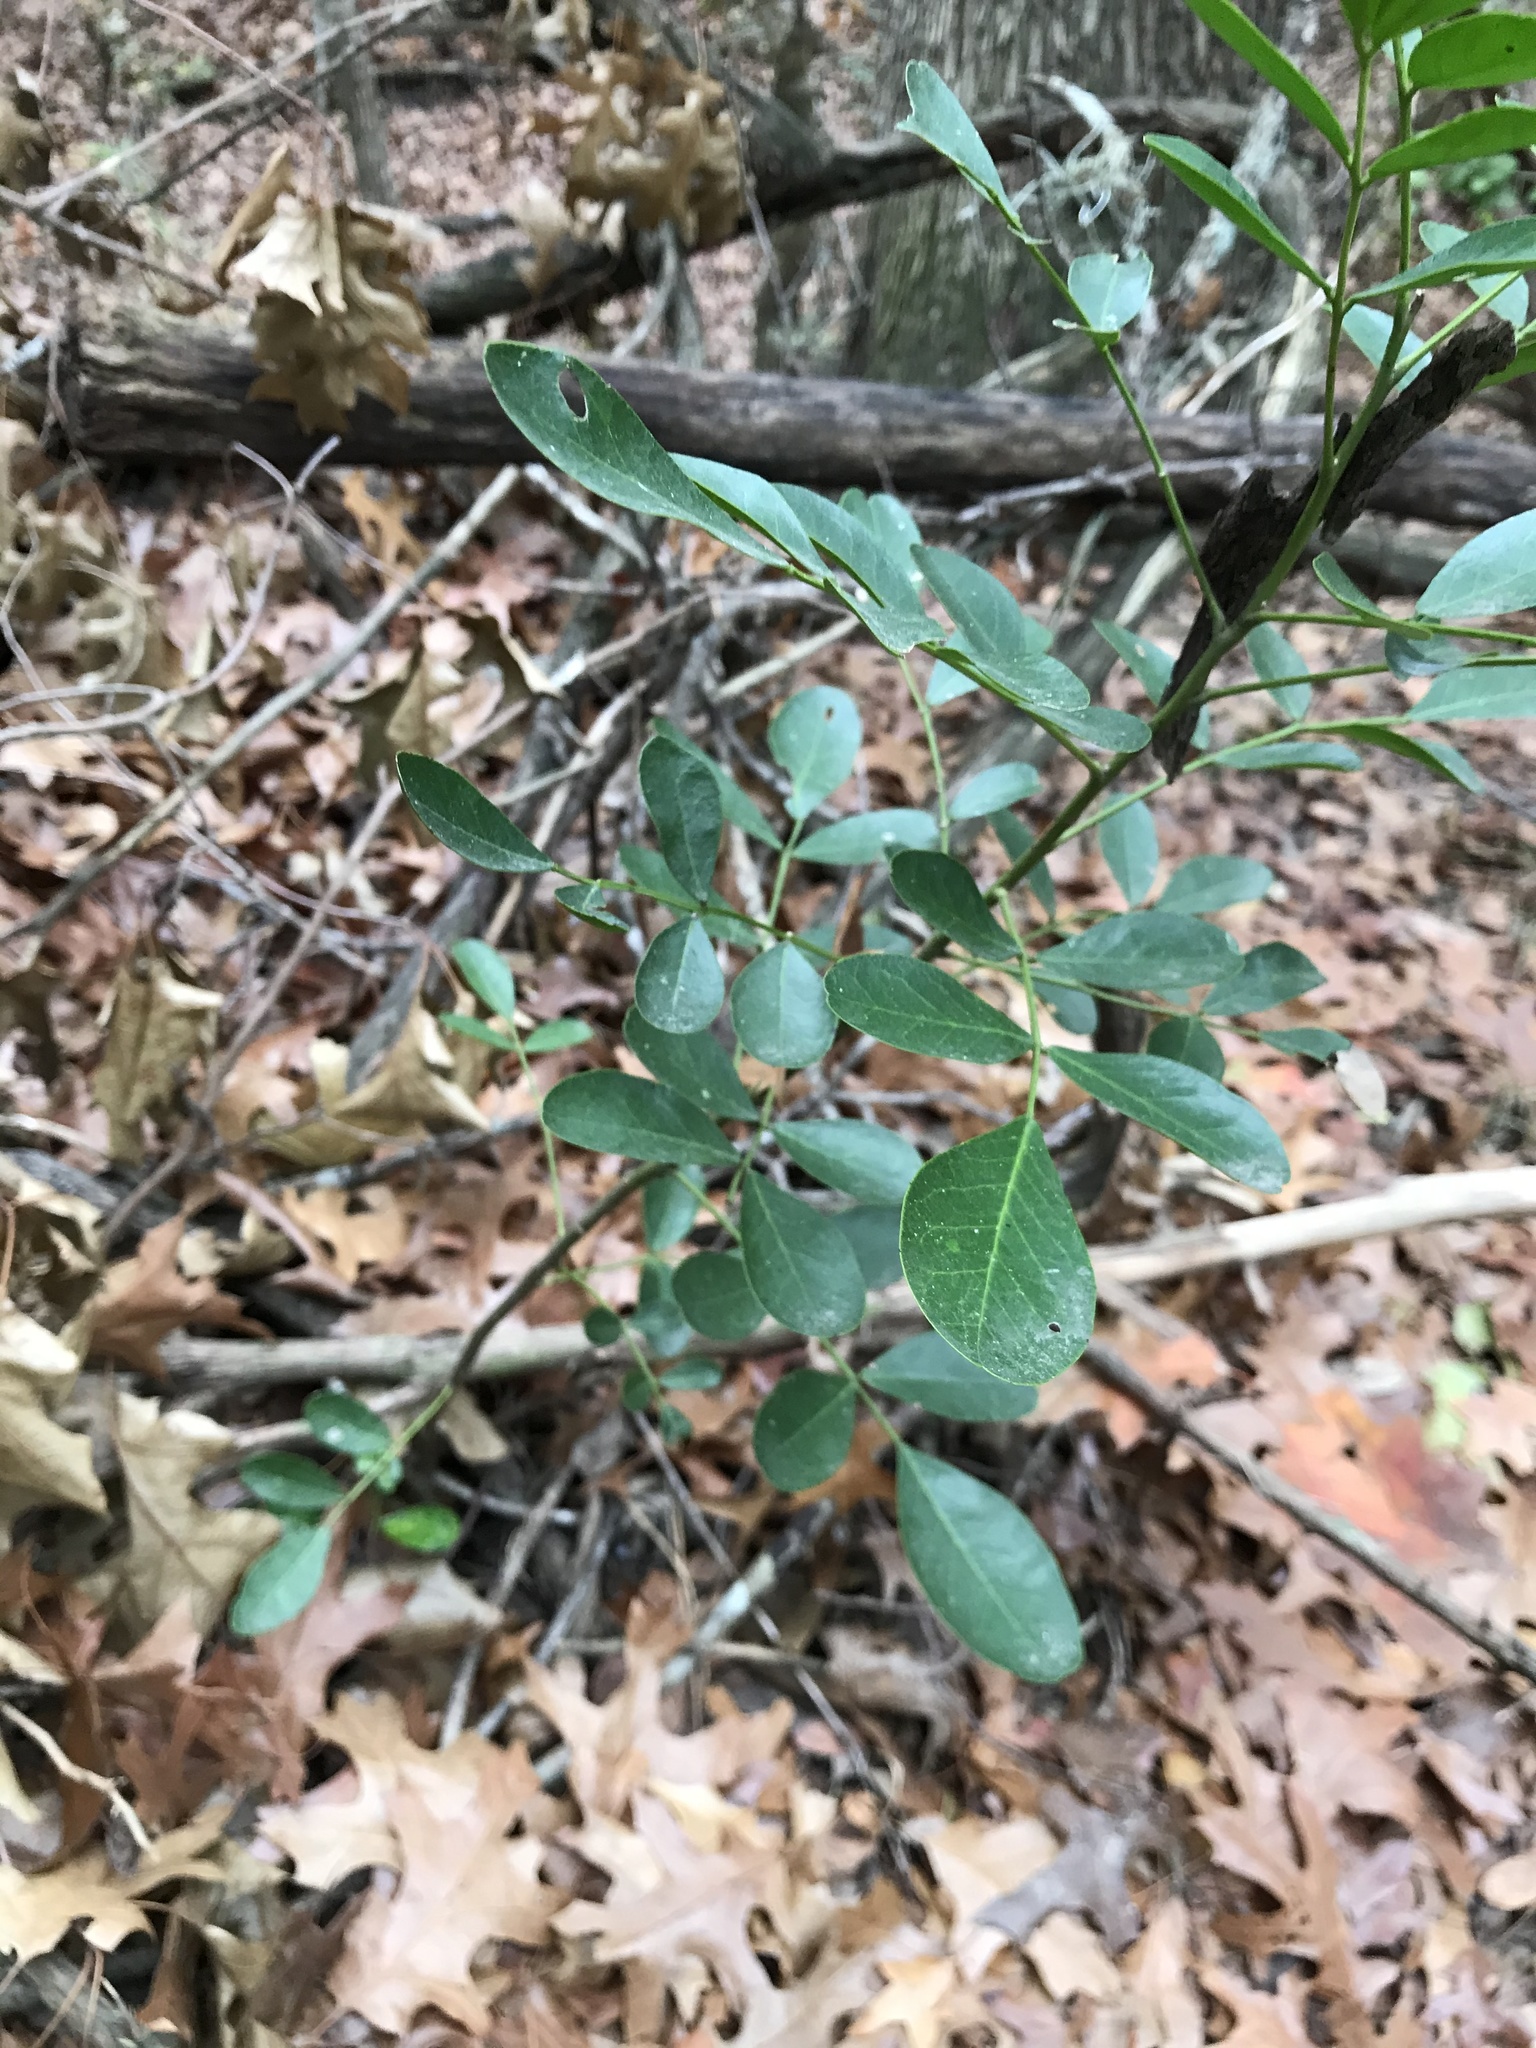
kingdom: Plantae
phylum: Tracheophyta
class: Magnoliopsida
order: Fabales
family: Fabaceae
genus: Dermatophyllum
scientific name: Dermatophyllum secundiflorum
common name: Texas-mountain-laurel
